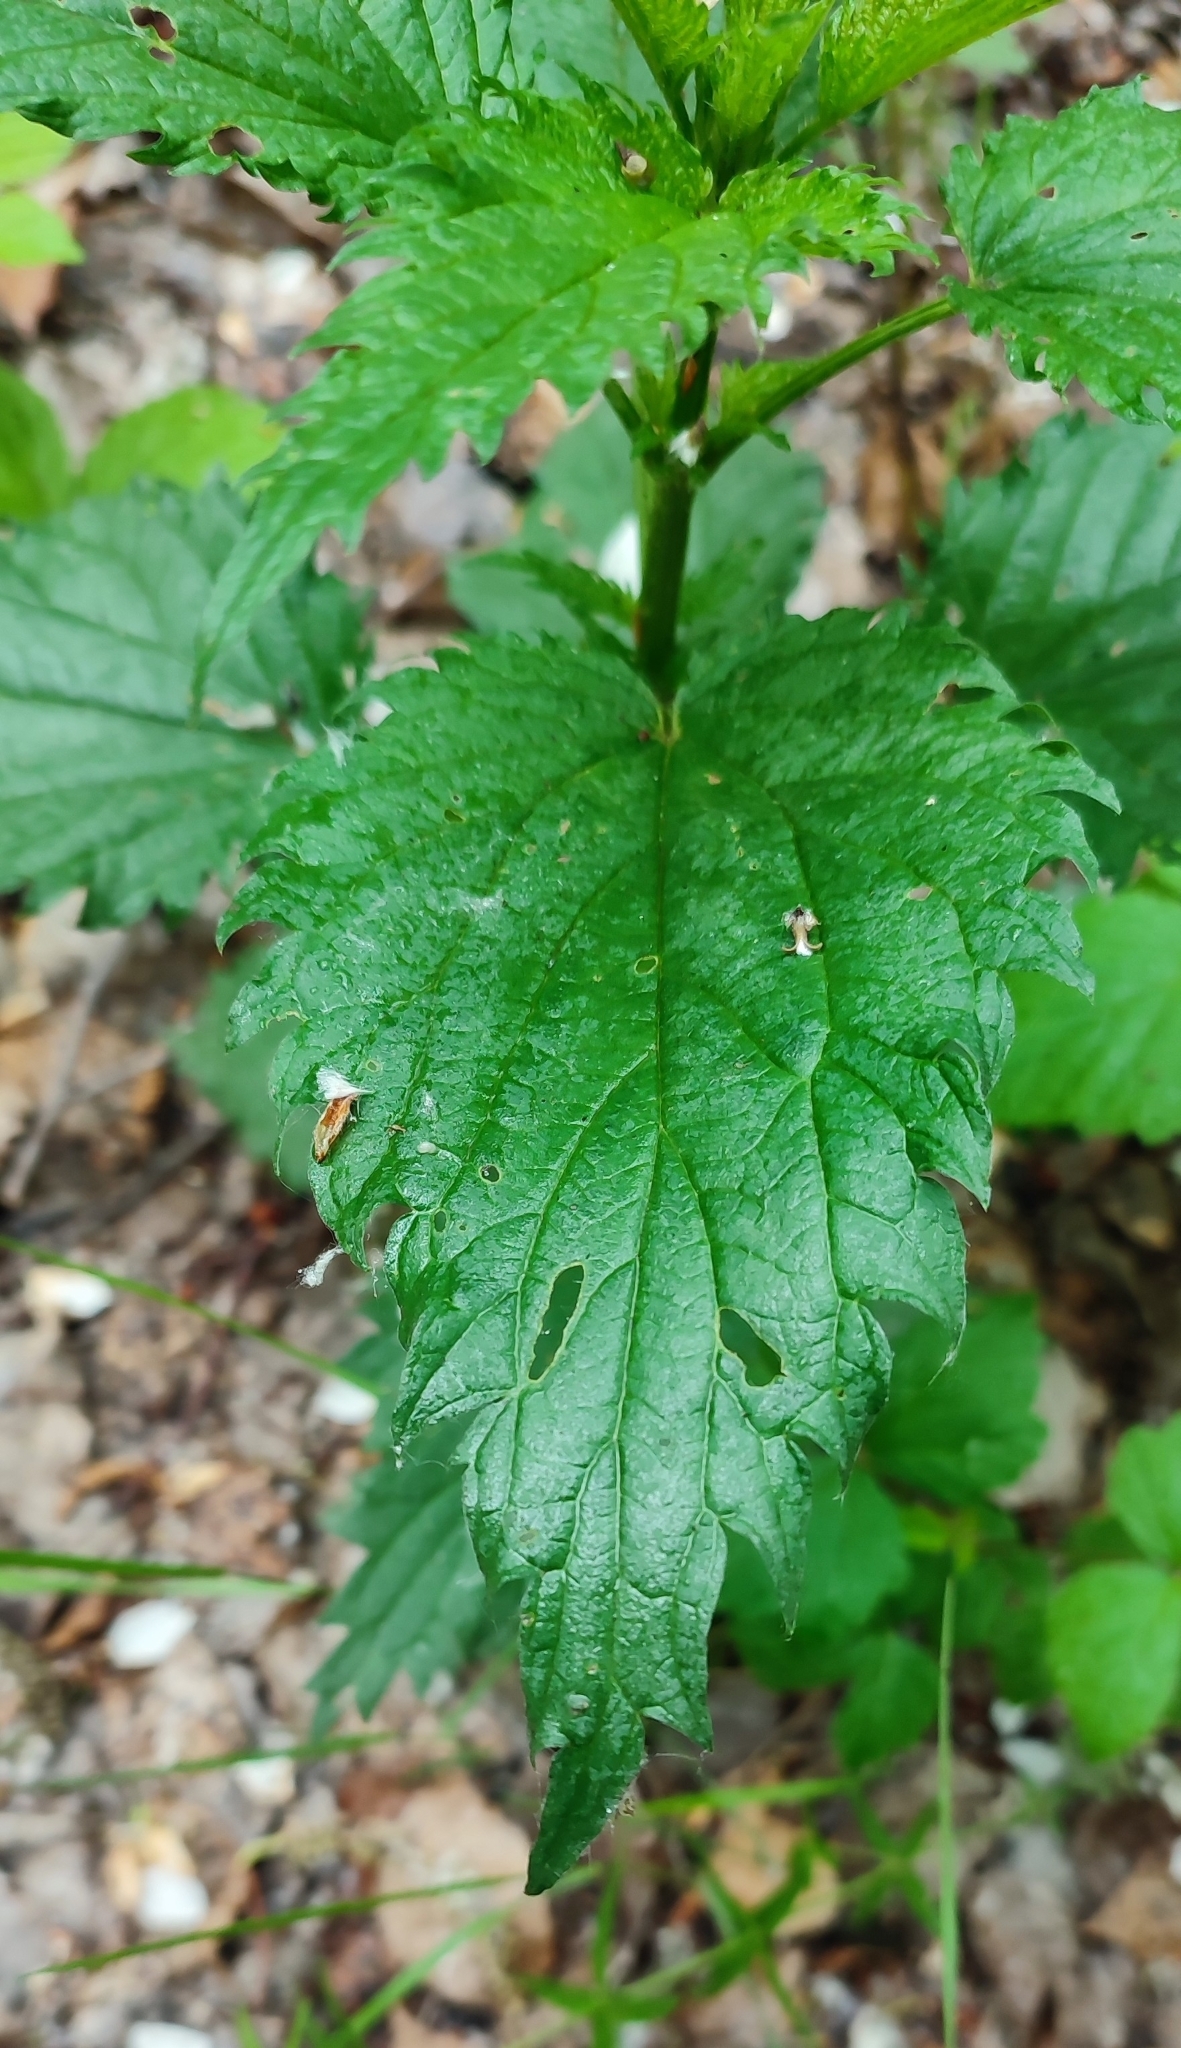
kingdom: Plantae
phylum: Tracheophyta
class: Magnoliopsida
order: Rosales
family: Urticaceae
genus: Urtica
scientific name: Urtica dioica
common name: Common nettle
